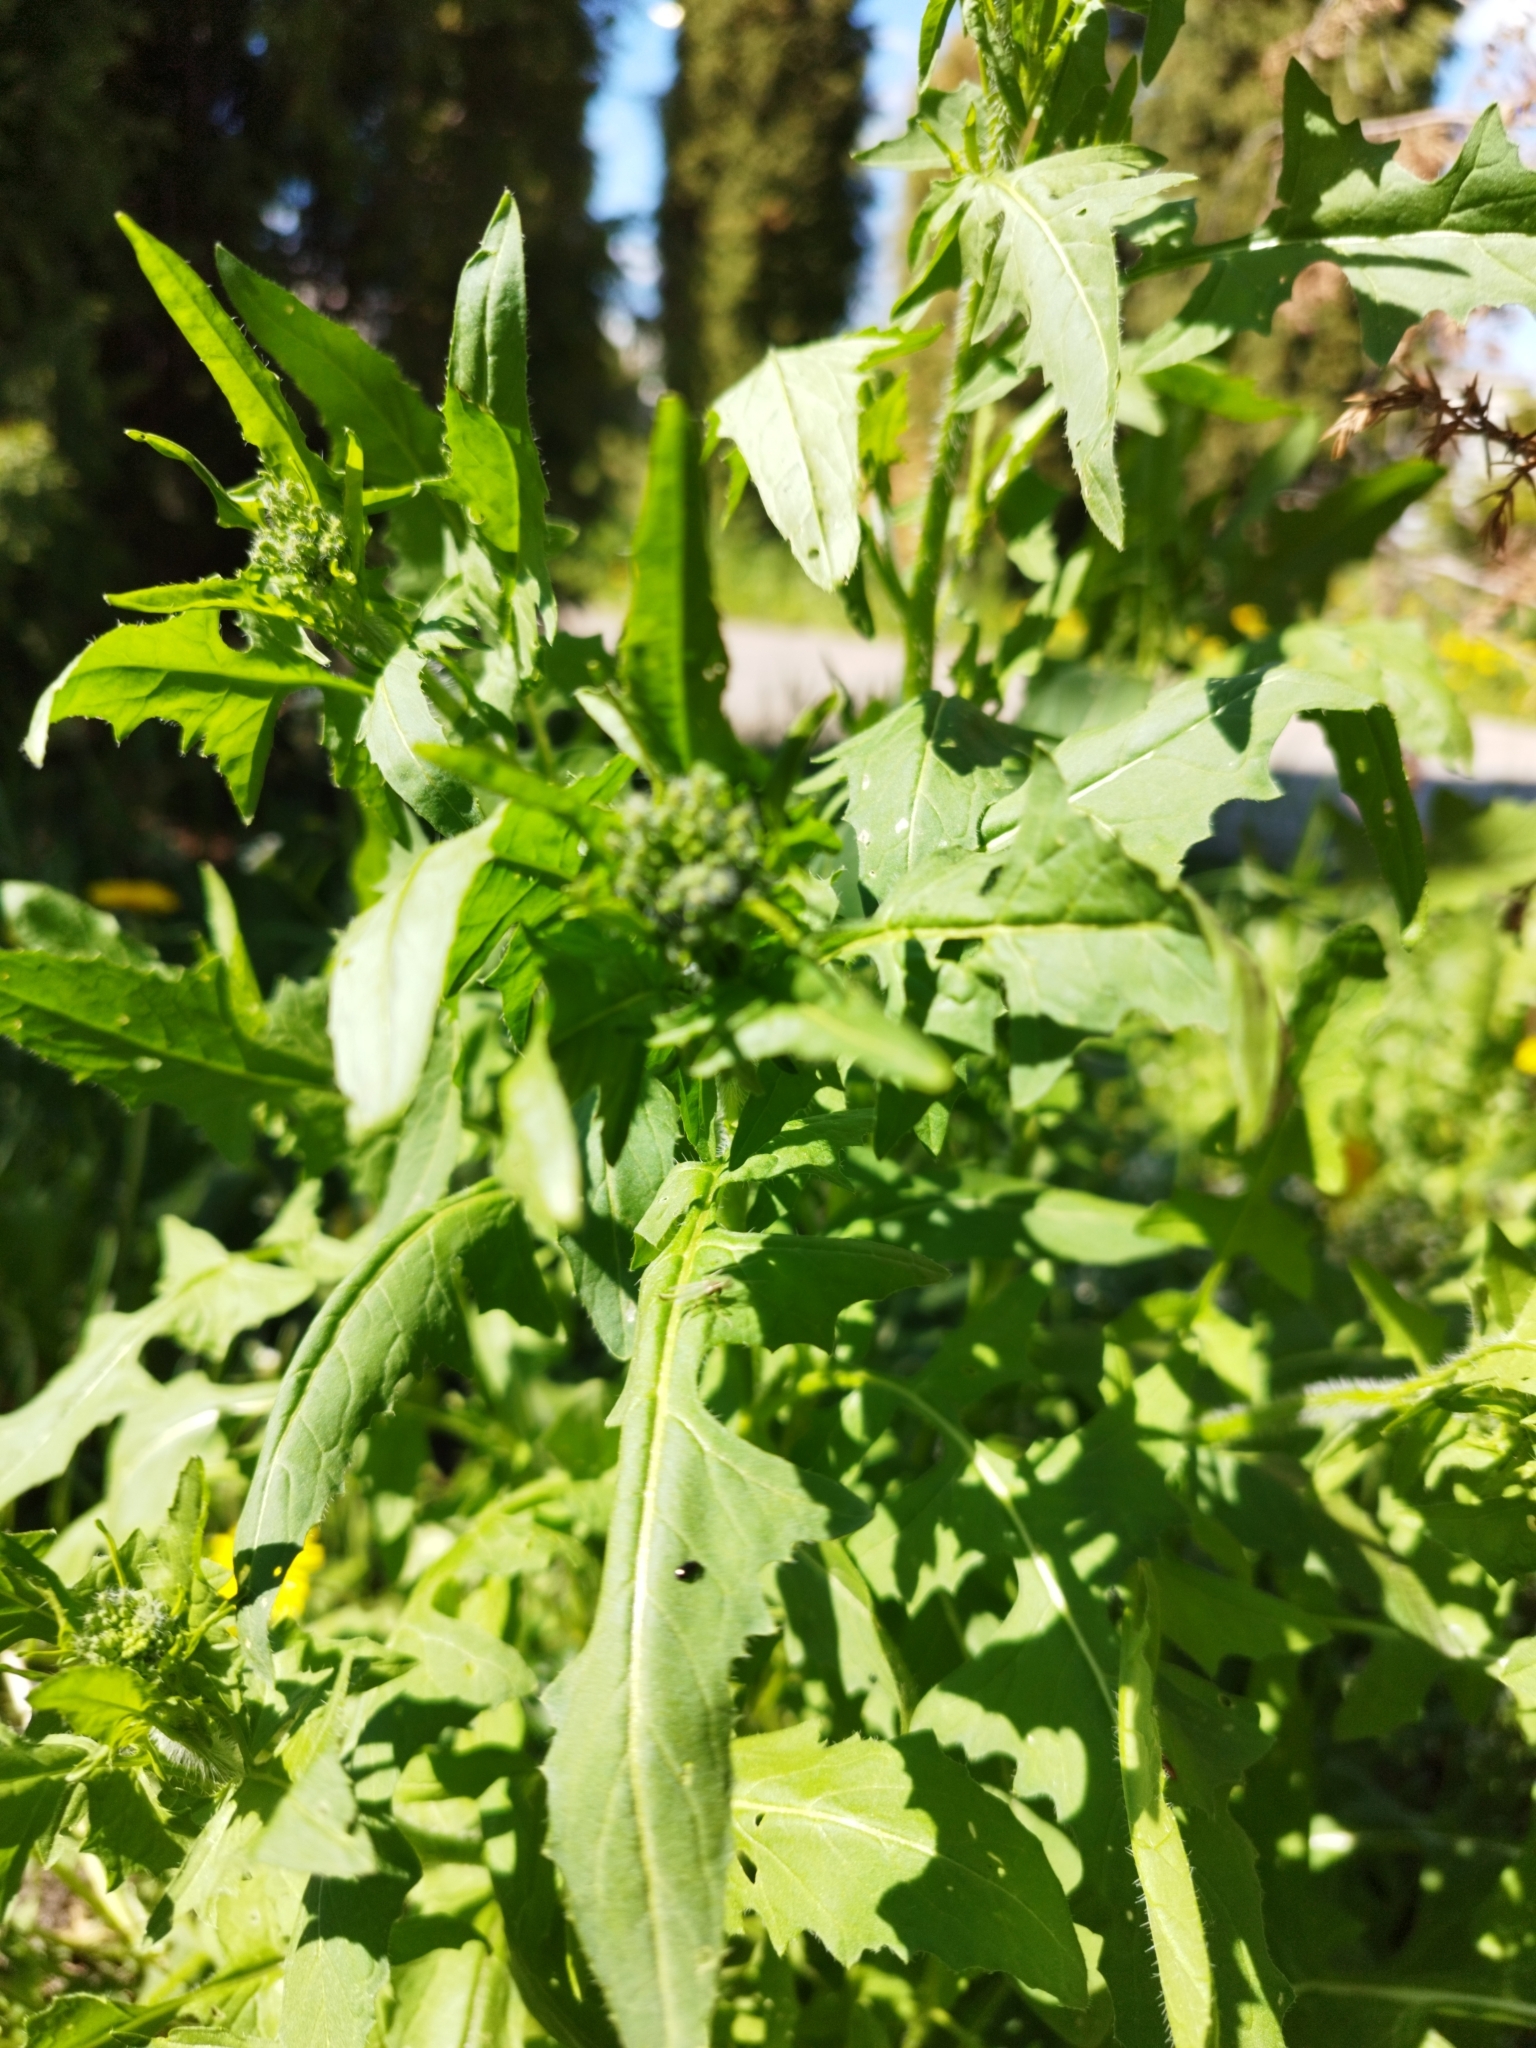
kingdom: Plantae
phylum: Tracheophyta
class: Magnoliopsida
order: Brassicales
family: Brassicaceae
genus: Sisymbrium
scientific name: Sisymbrium loeselii
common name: False london-rocket
